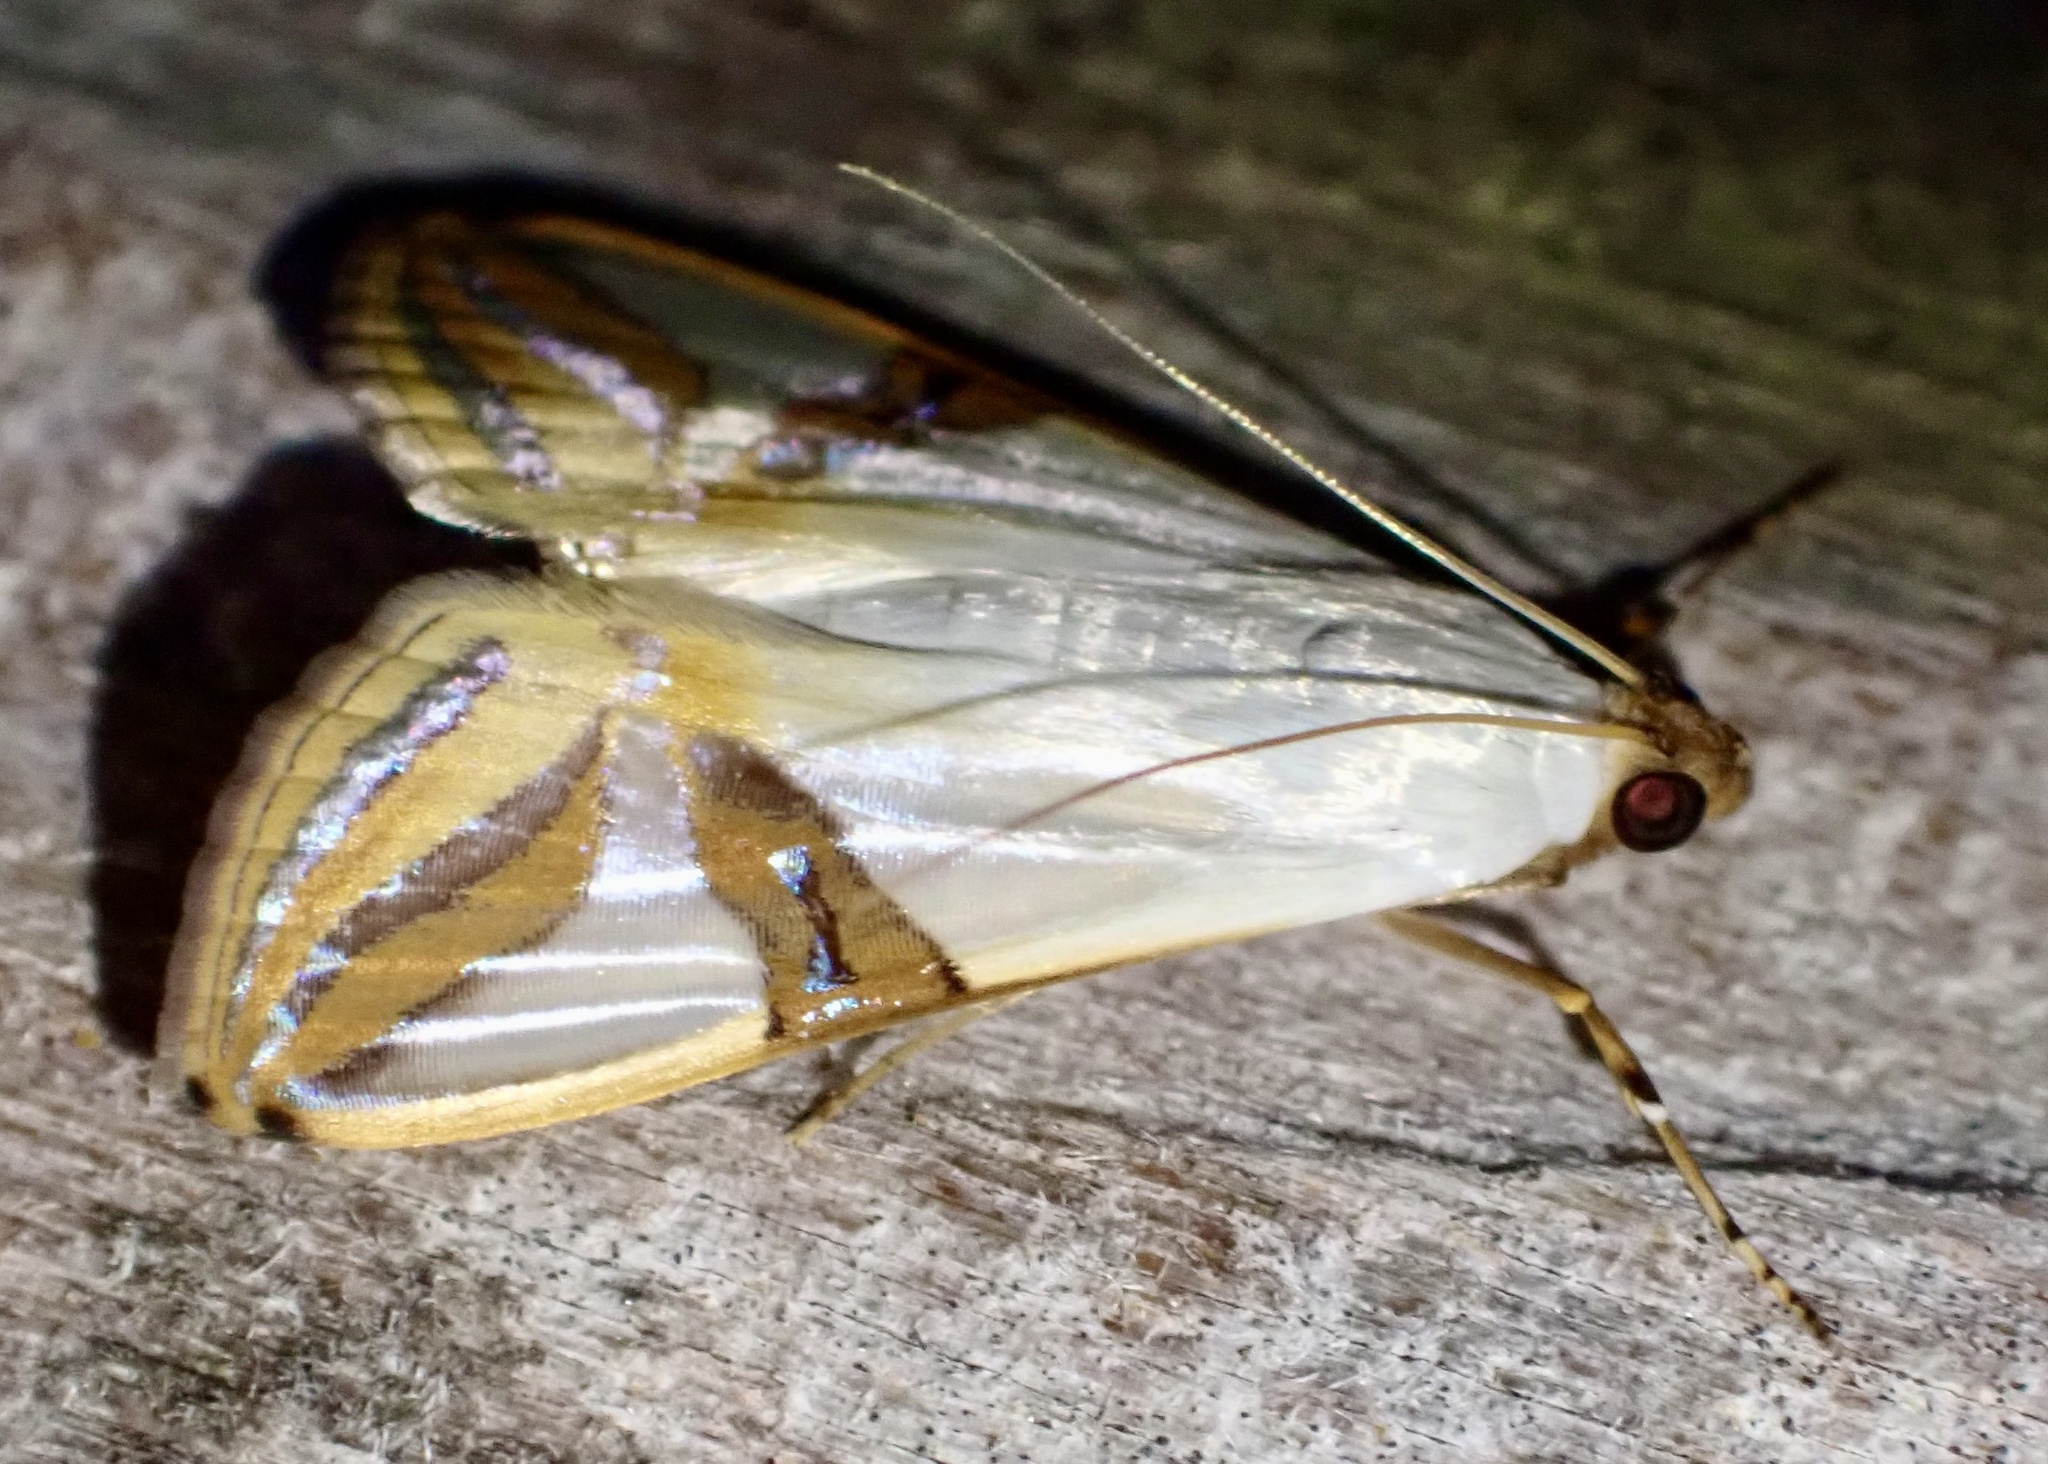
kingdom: Animalia
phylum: Arthropoda
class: Insecta
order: Lepidoptera
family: Crambidae
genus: Talanga
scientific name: Talanga sabacusalis
